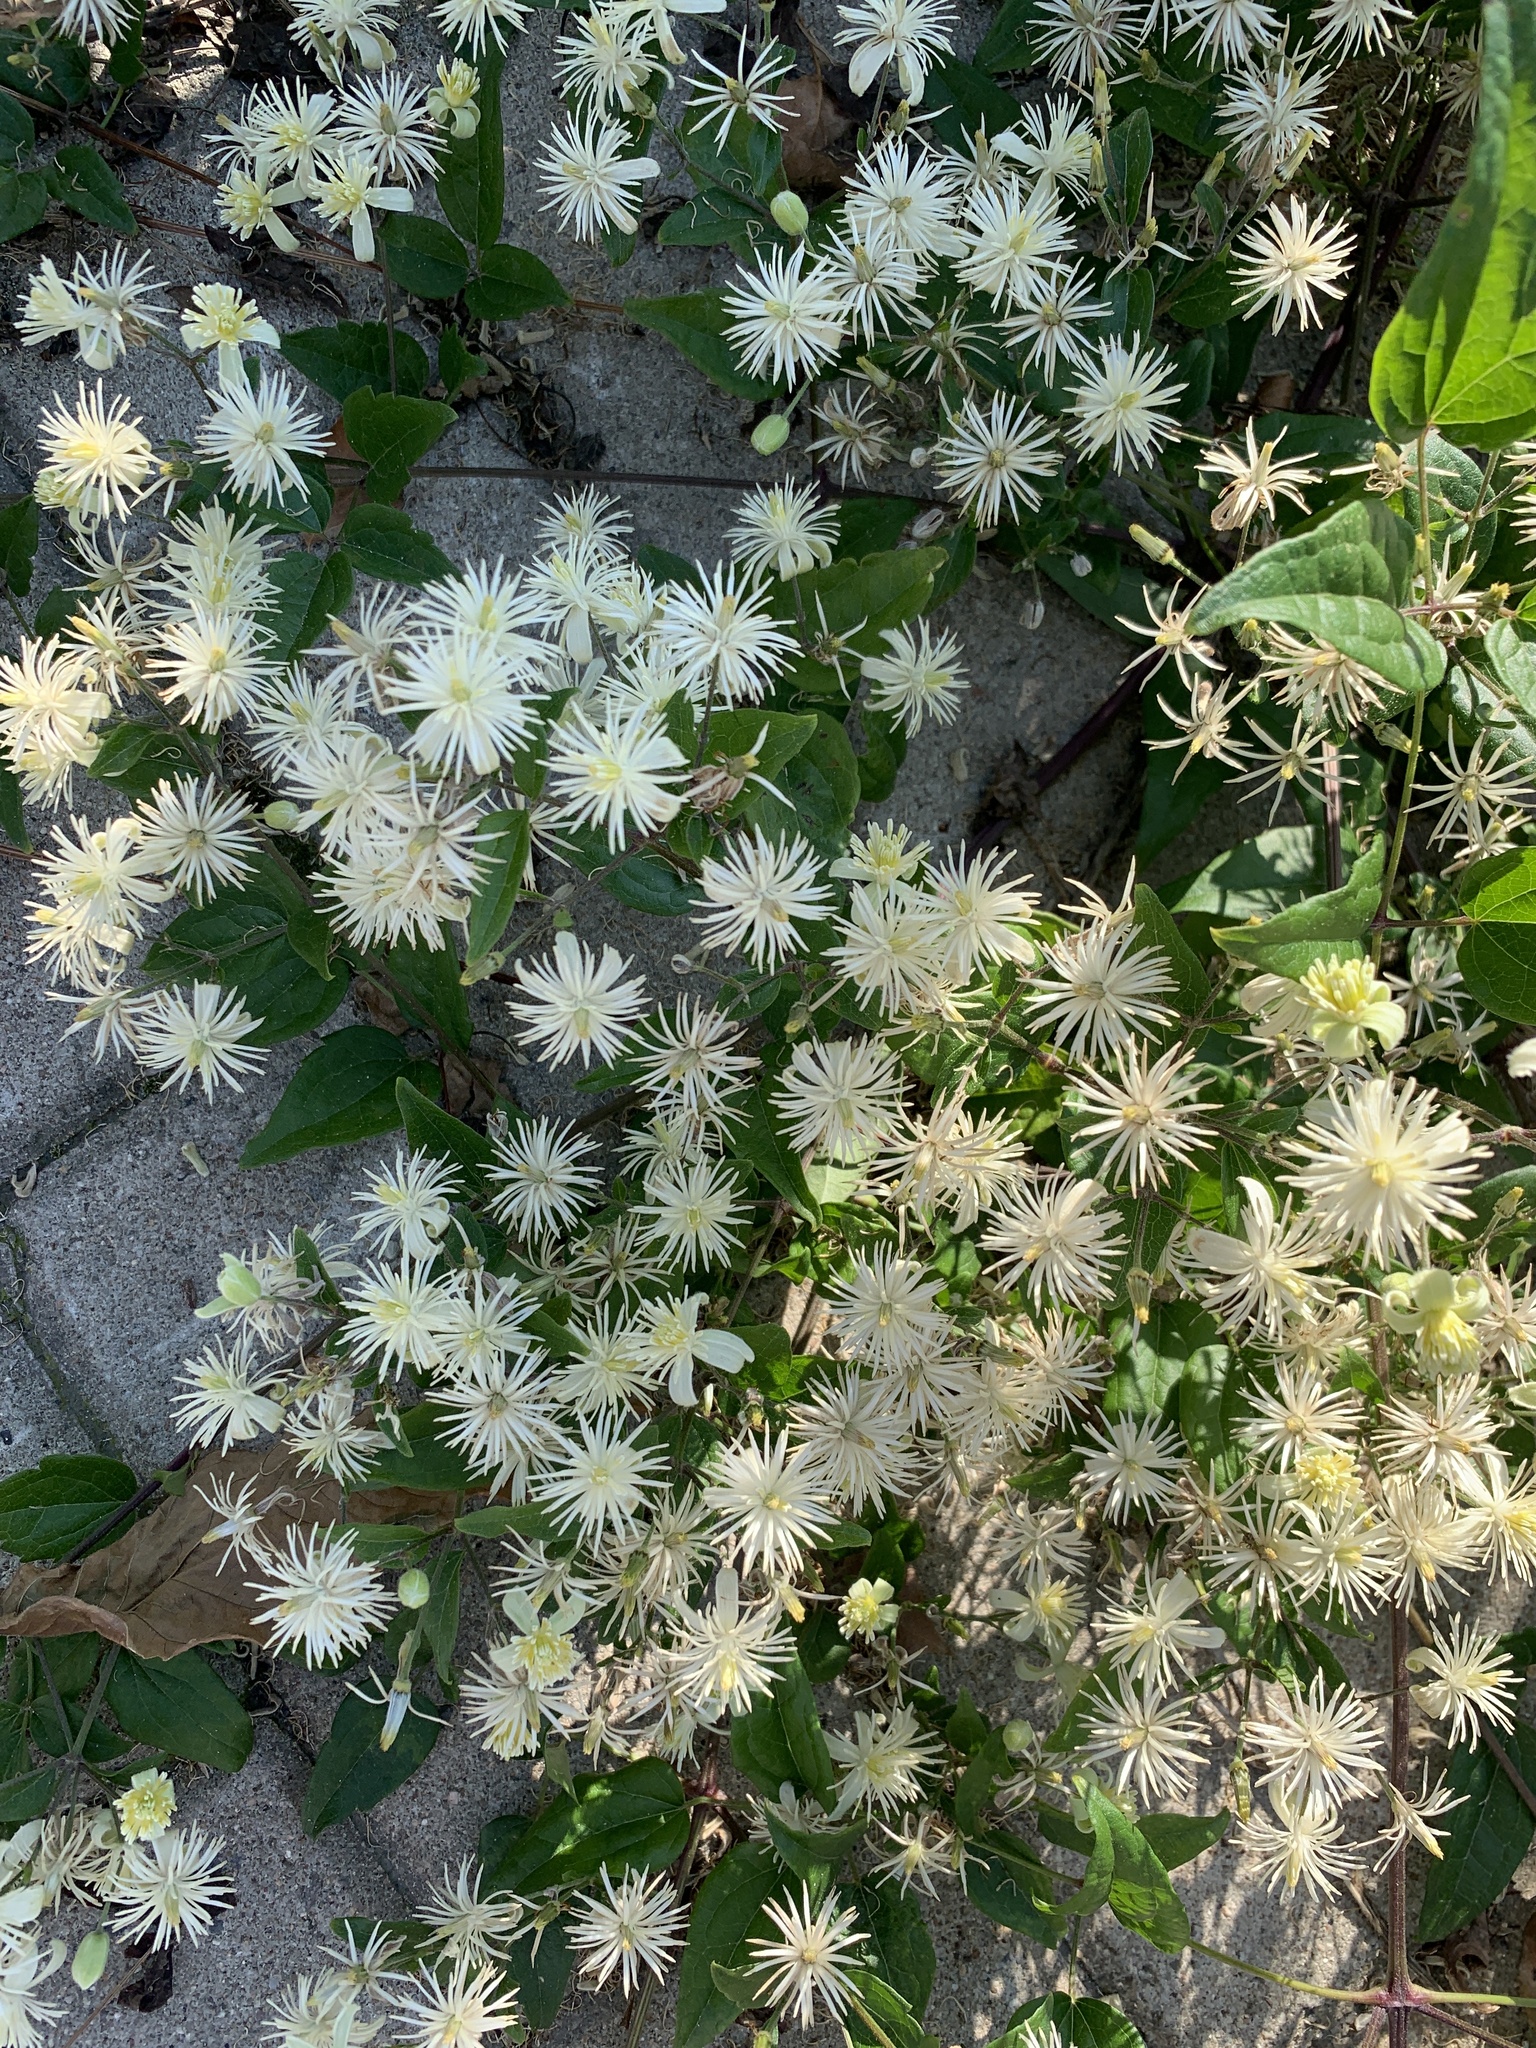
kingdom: Plantae
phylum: Tracheophyta
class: Magnoliopsida
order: Ranunculales
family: Ranunculaceae
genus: Clematis
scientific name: Clematis vitalba
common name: Evergreen clematis
